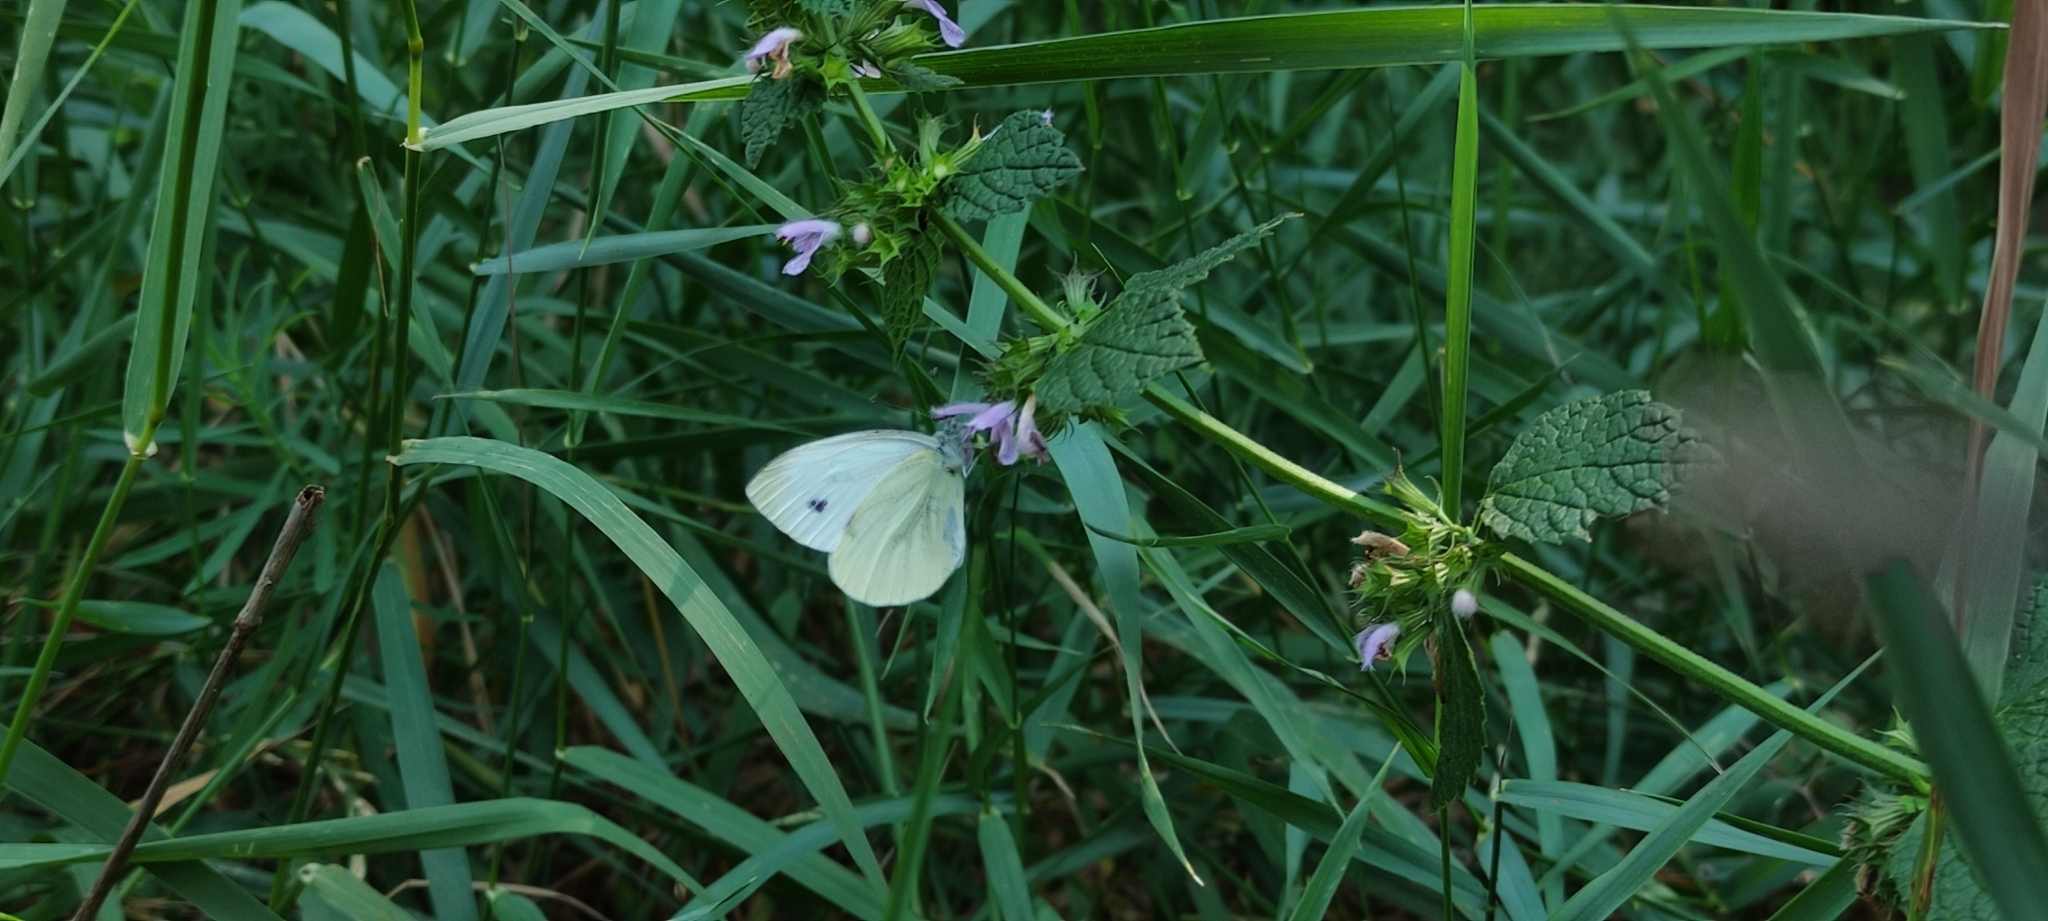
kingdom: Animalia
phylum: Arthropoda
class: Insecta
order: Lepidoptera
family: Pieridae
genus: Pieris
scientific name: Pieris napi
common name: Green-veined white
